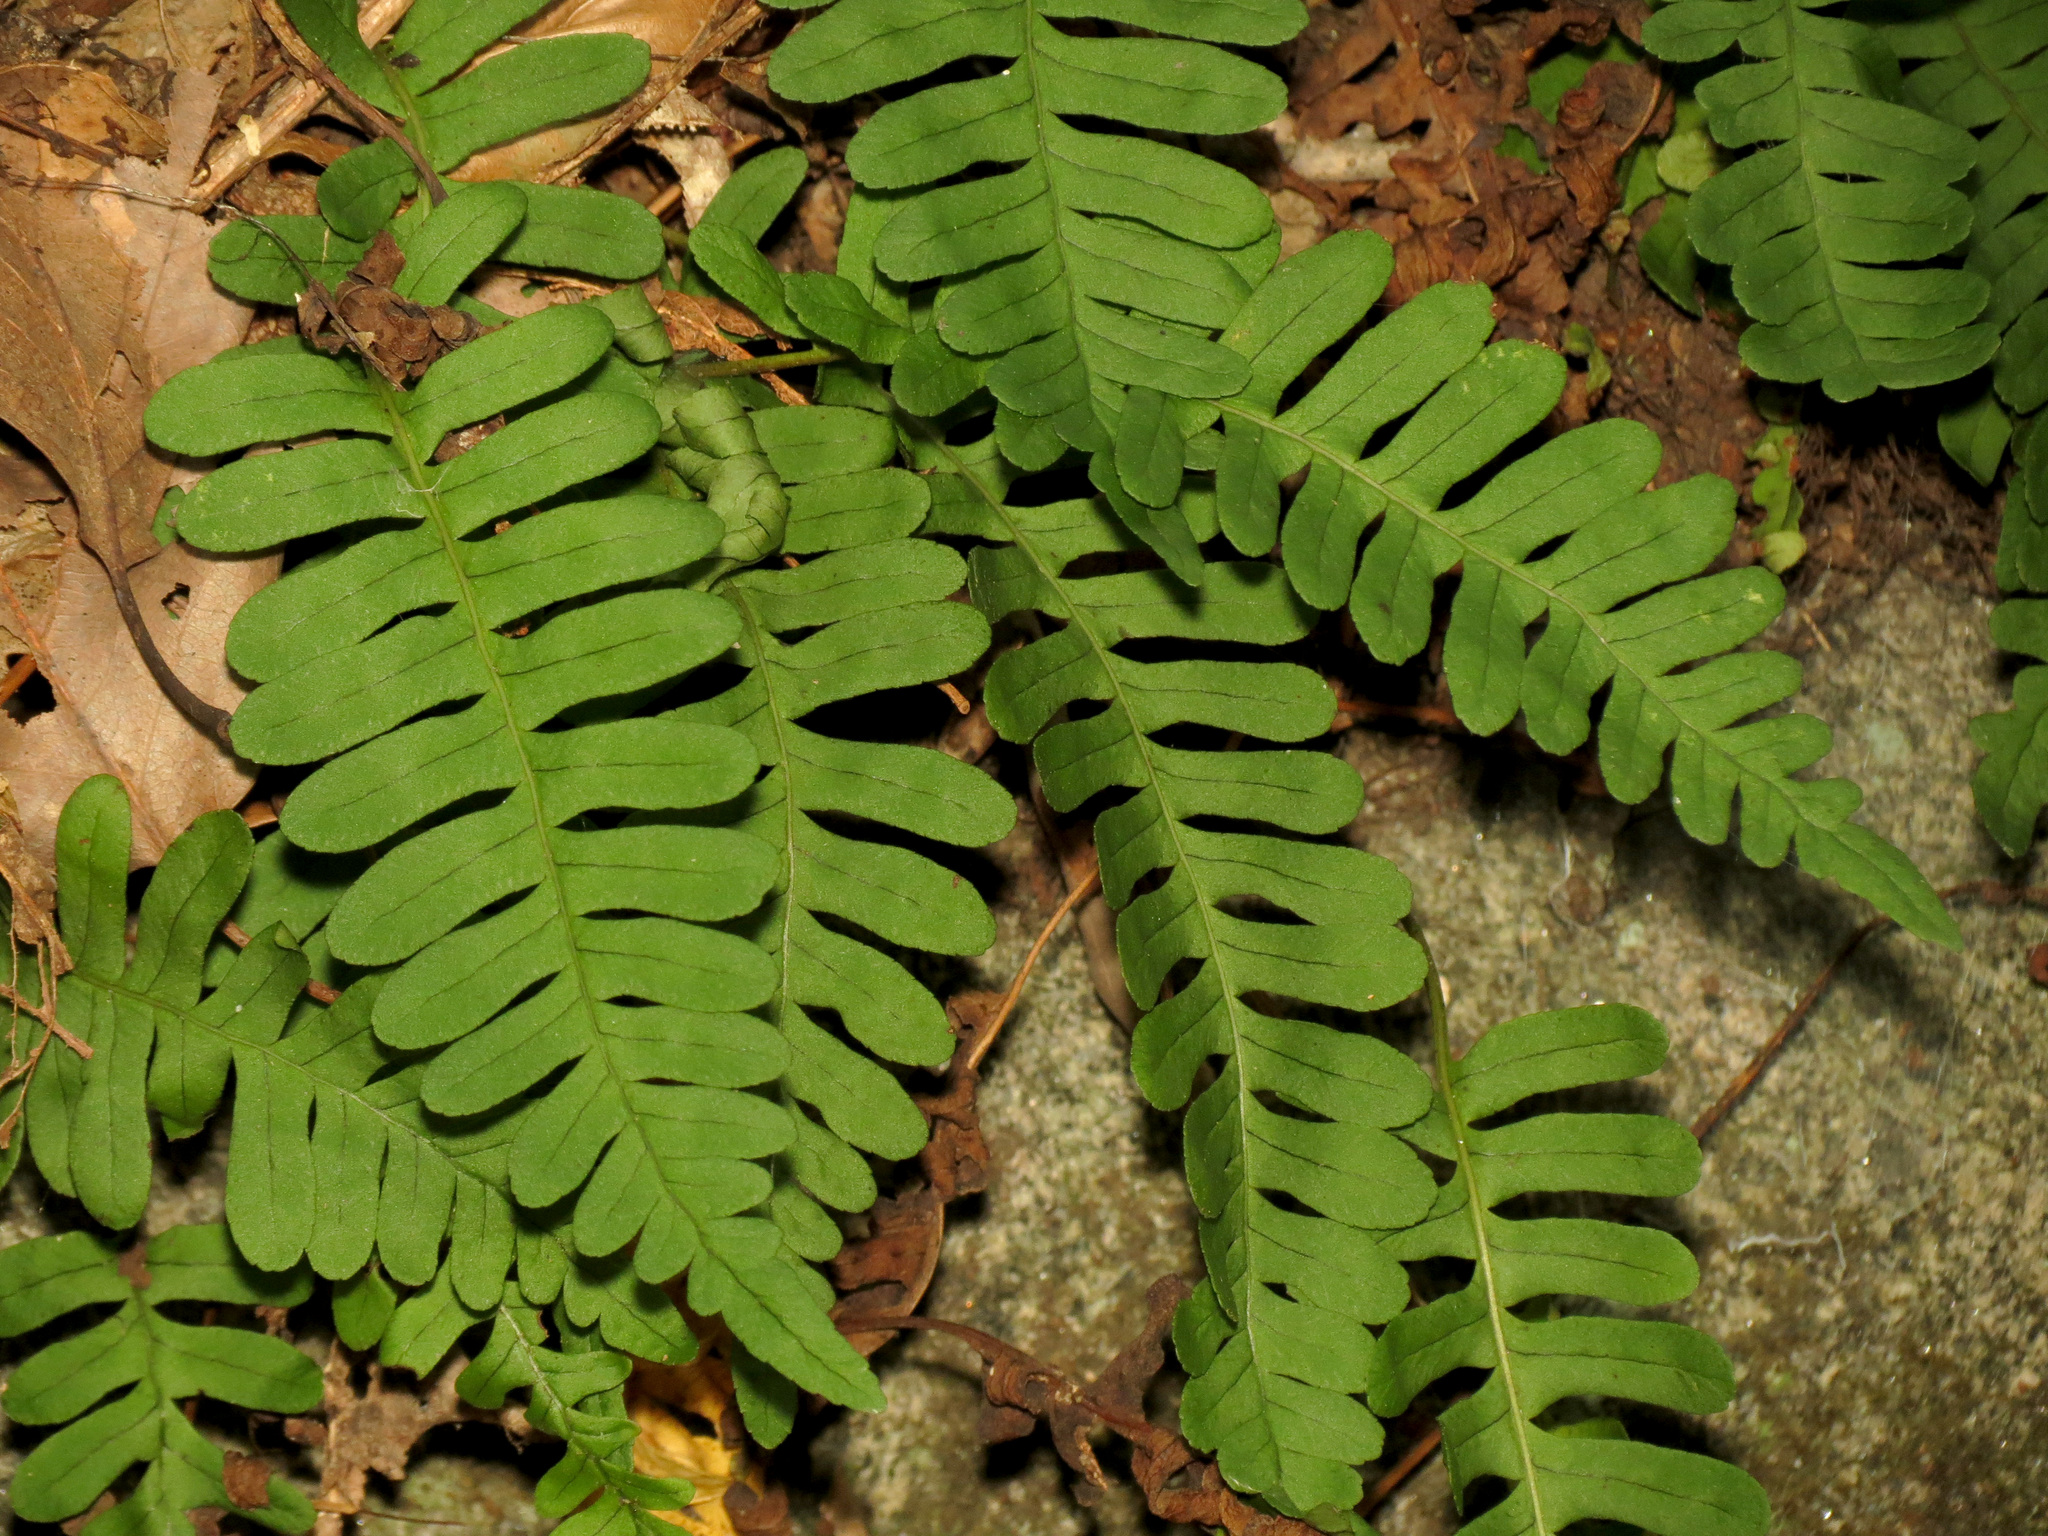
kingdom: Plantae
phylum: Tracheophyta
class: Polypodiopsida
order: Polypodiales
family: Polypodiaceae
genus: Polypodium
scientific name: Polypodium virginianum
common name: American wall fern
